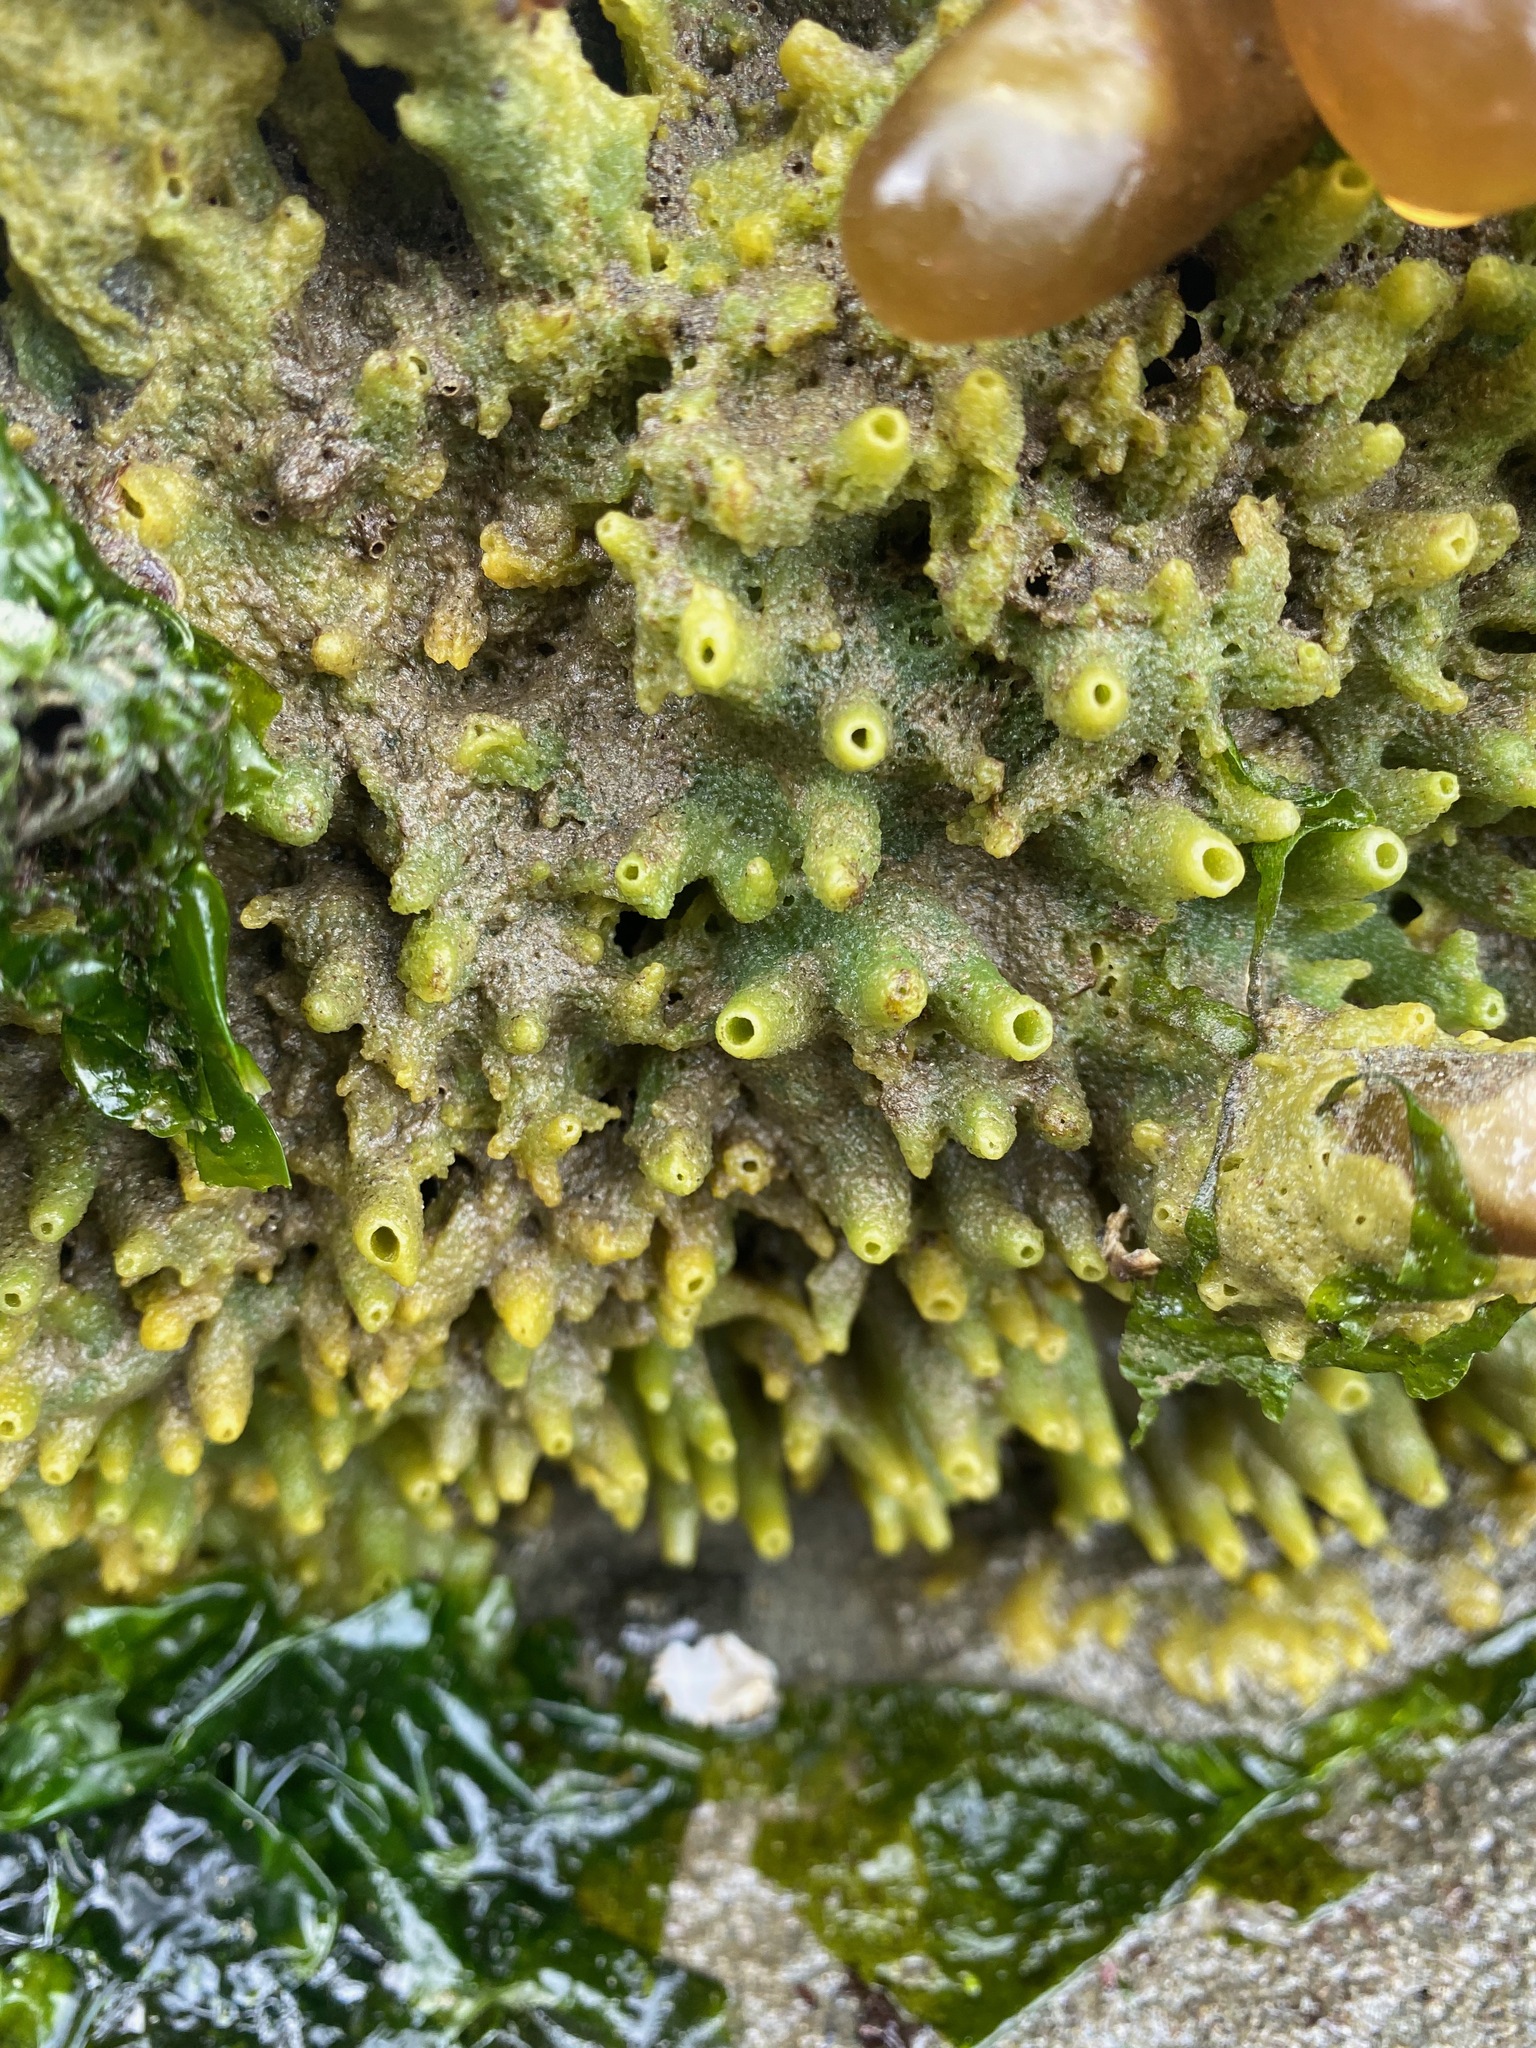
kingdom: Animalia
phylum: Porifera
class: Demospongiae
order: Suberitida
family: Halichondriidae
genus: Halichondria
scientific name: Halichondria panicea
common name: Breadcrumb sponge
